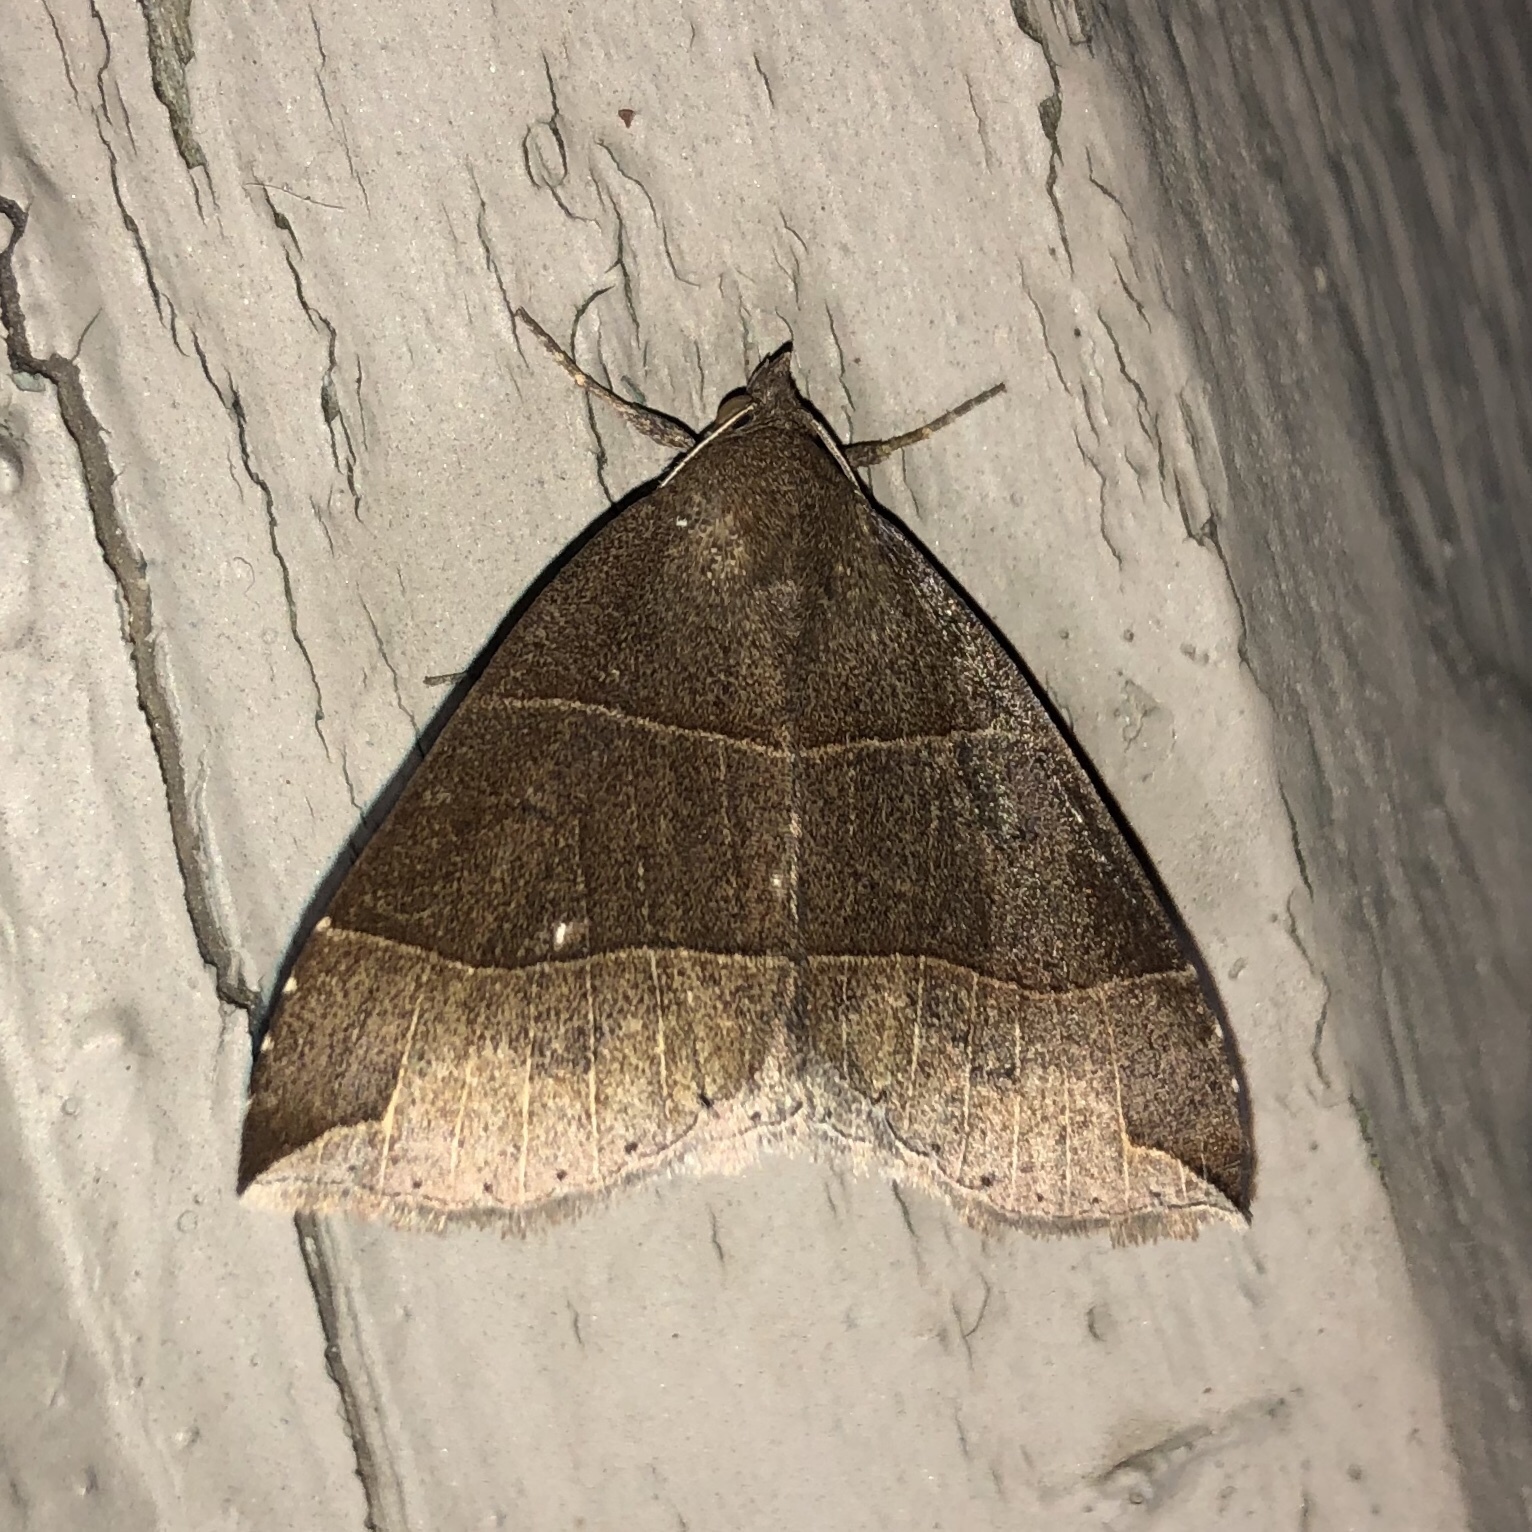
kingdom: Animalia
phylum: Arthropoda
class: Insecta
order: Lepidoptera
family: Erebidae
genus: Parallelia
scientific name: Parallelia bistriaris
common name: Maple looper moth
